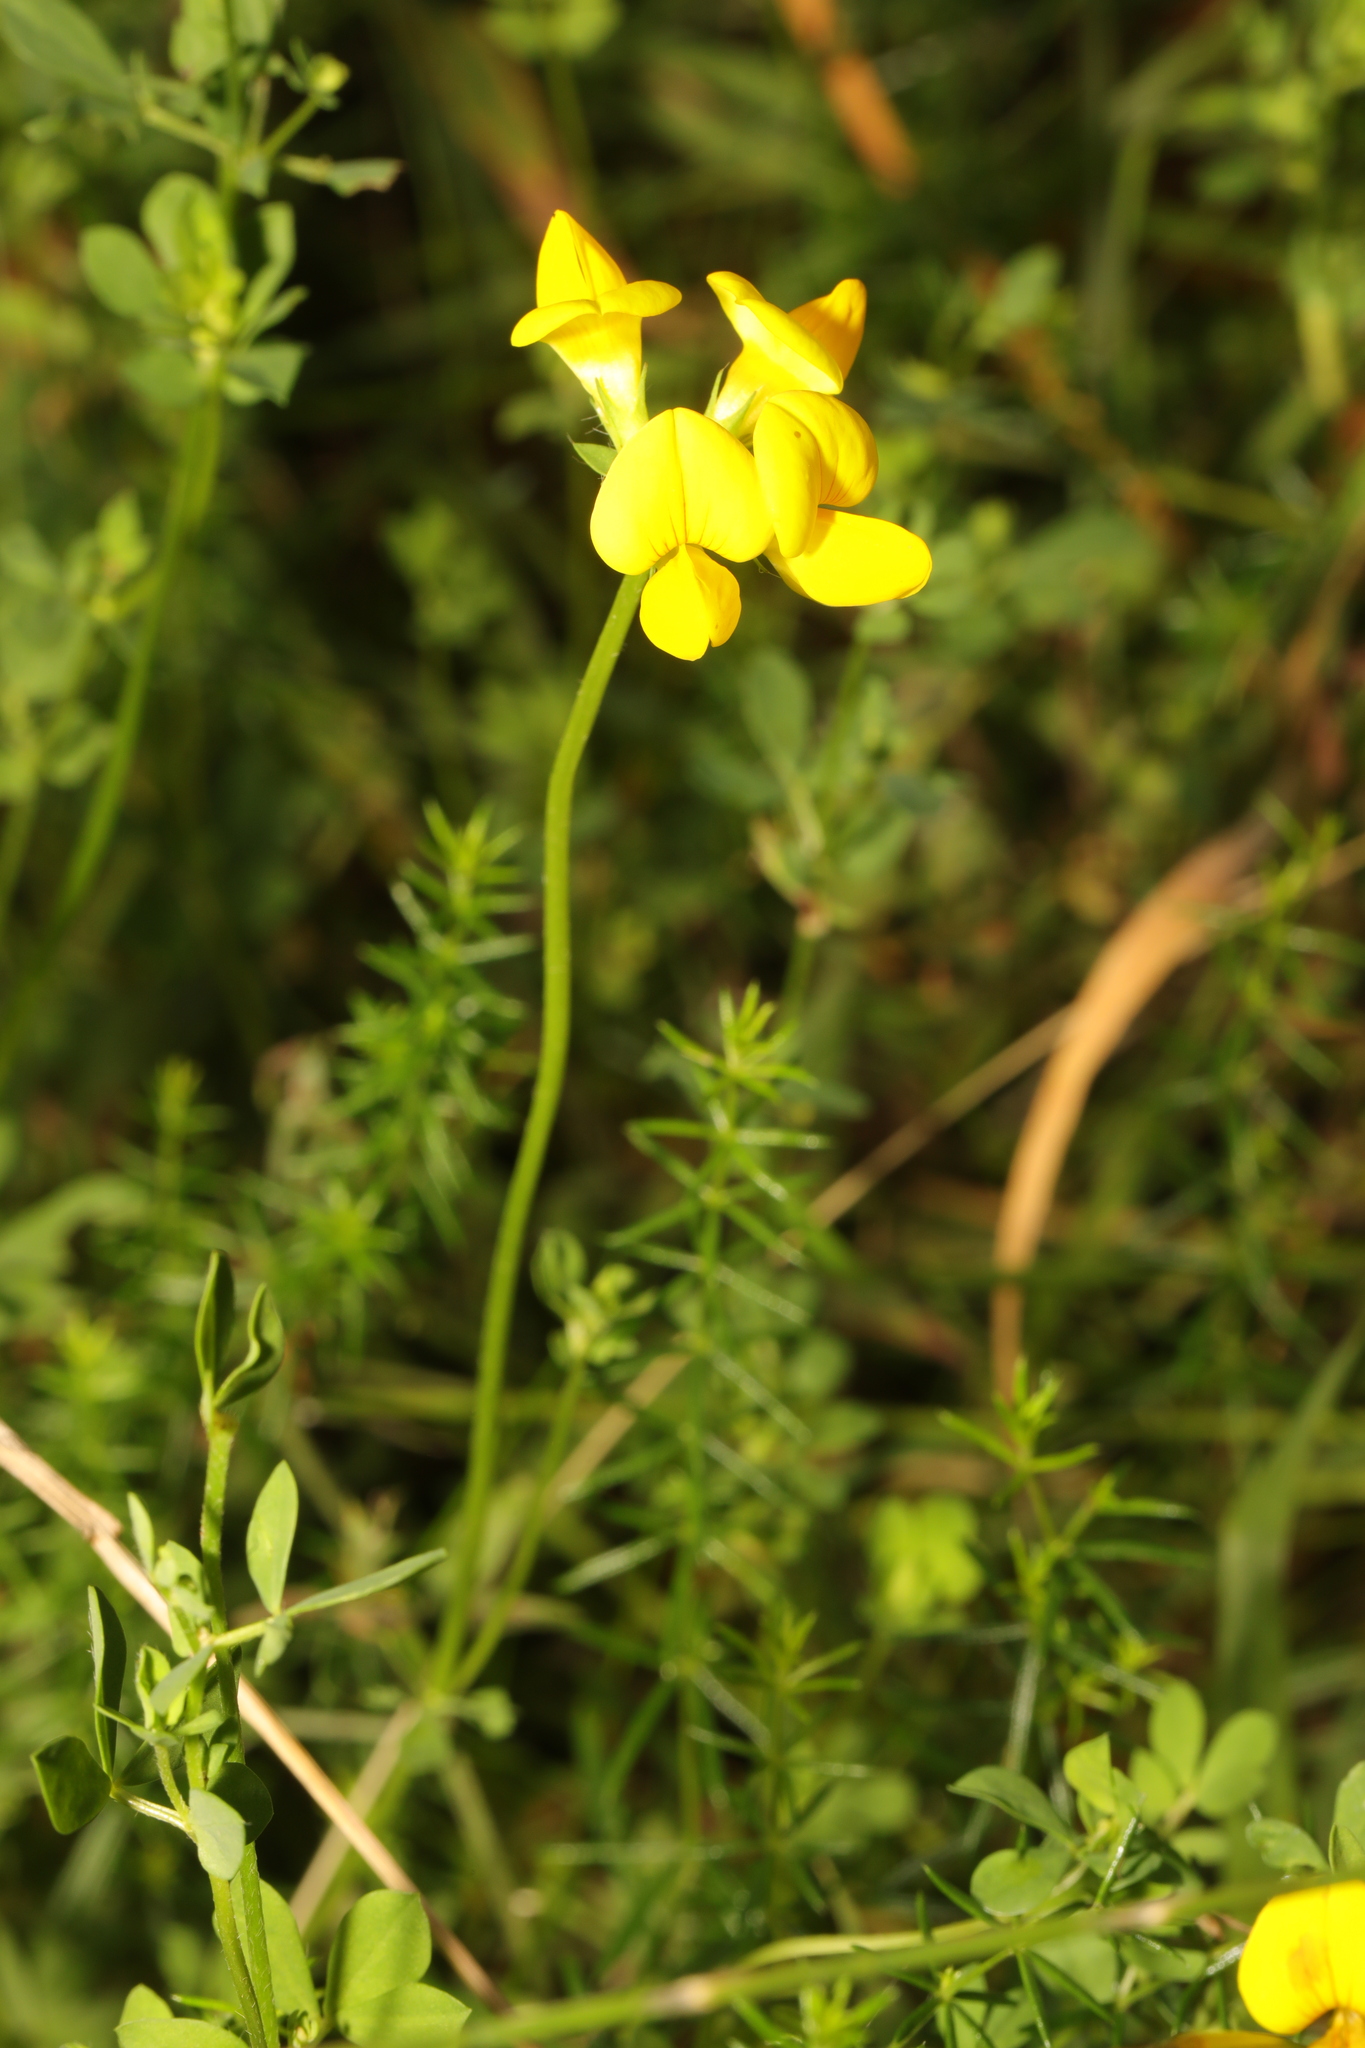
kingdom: Plantae
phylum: Tracheophyta
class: Magnoliopsida
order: Fabales
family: Fabaceae
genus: Lotus
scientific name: Lotus corniculatus
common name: Common bird's-foot-trefoil
